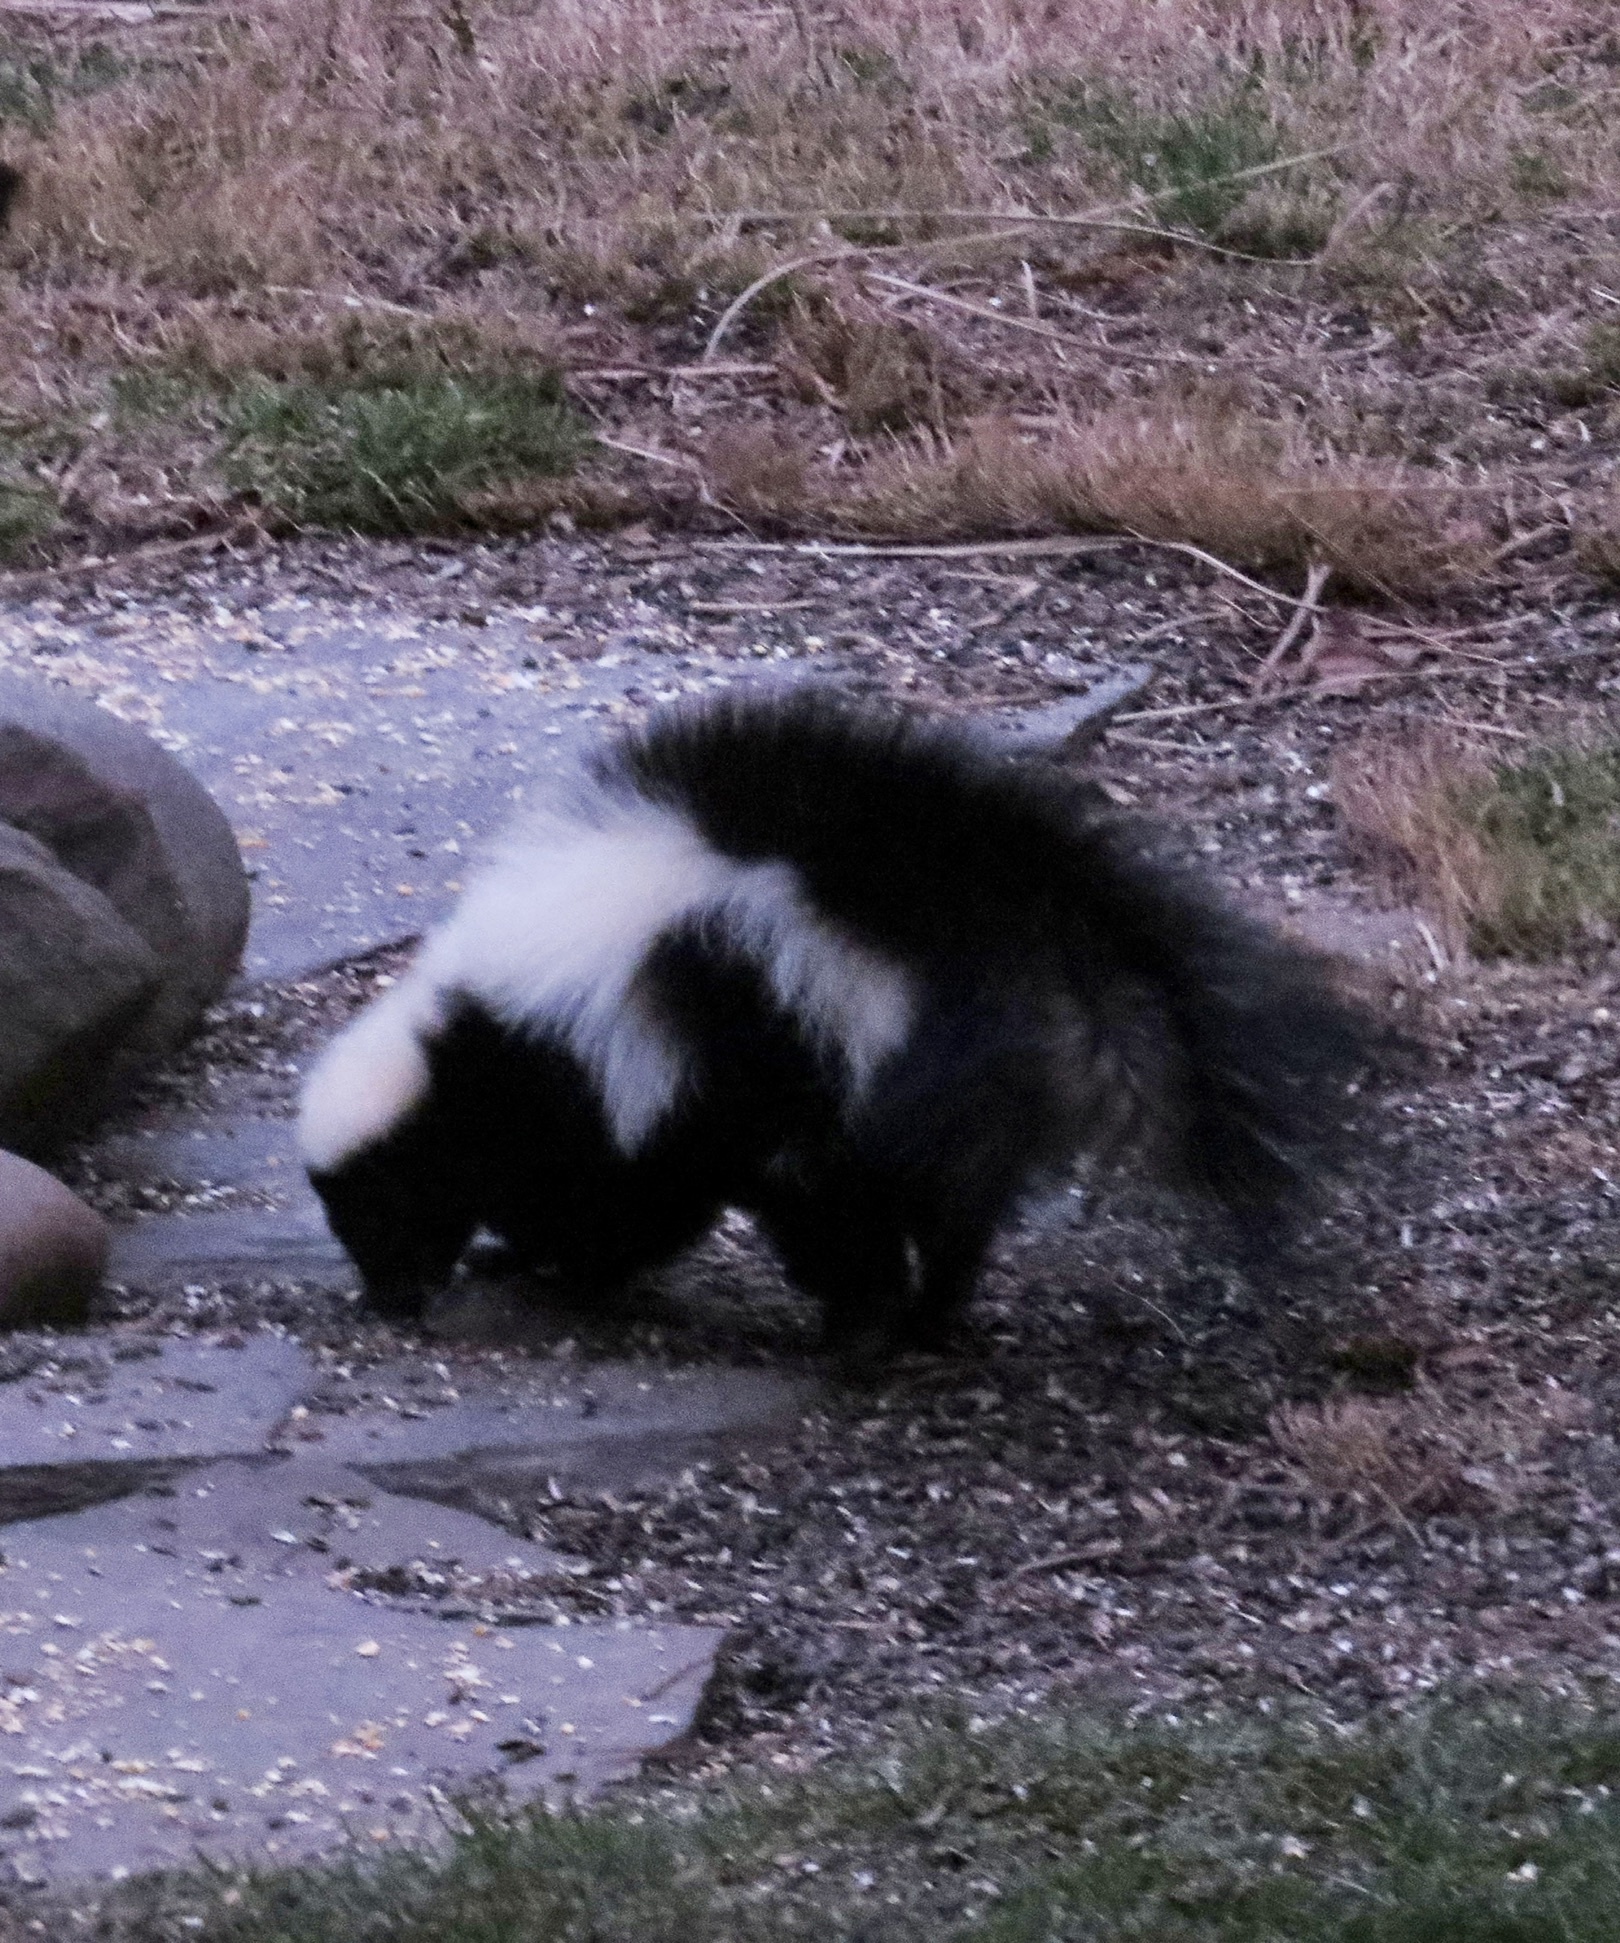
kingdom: Animalia
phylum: Chordata
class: Mammalia
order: Carnivora
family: Mephitidae
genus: Mephitis
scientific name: Mephitis mephitis
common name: Striped skunk
